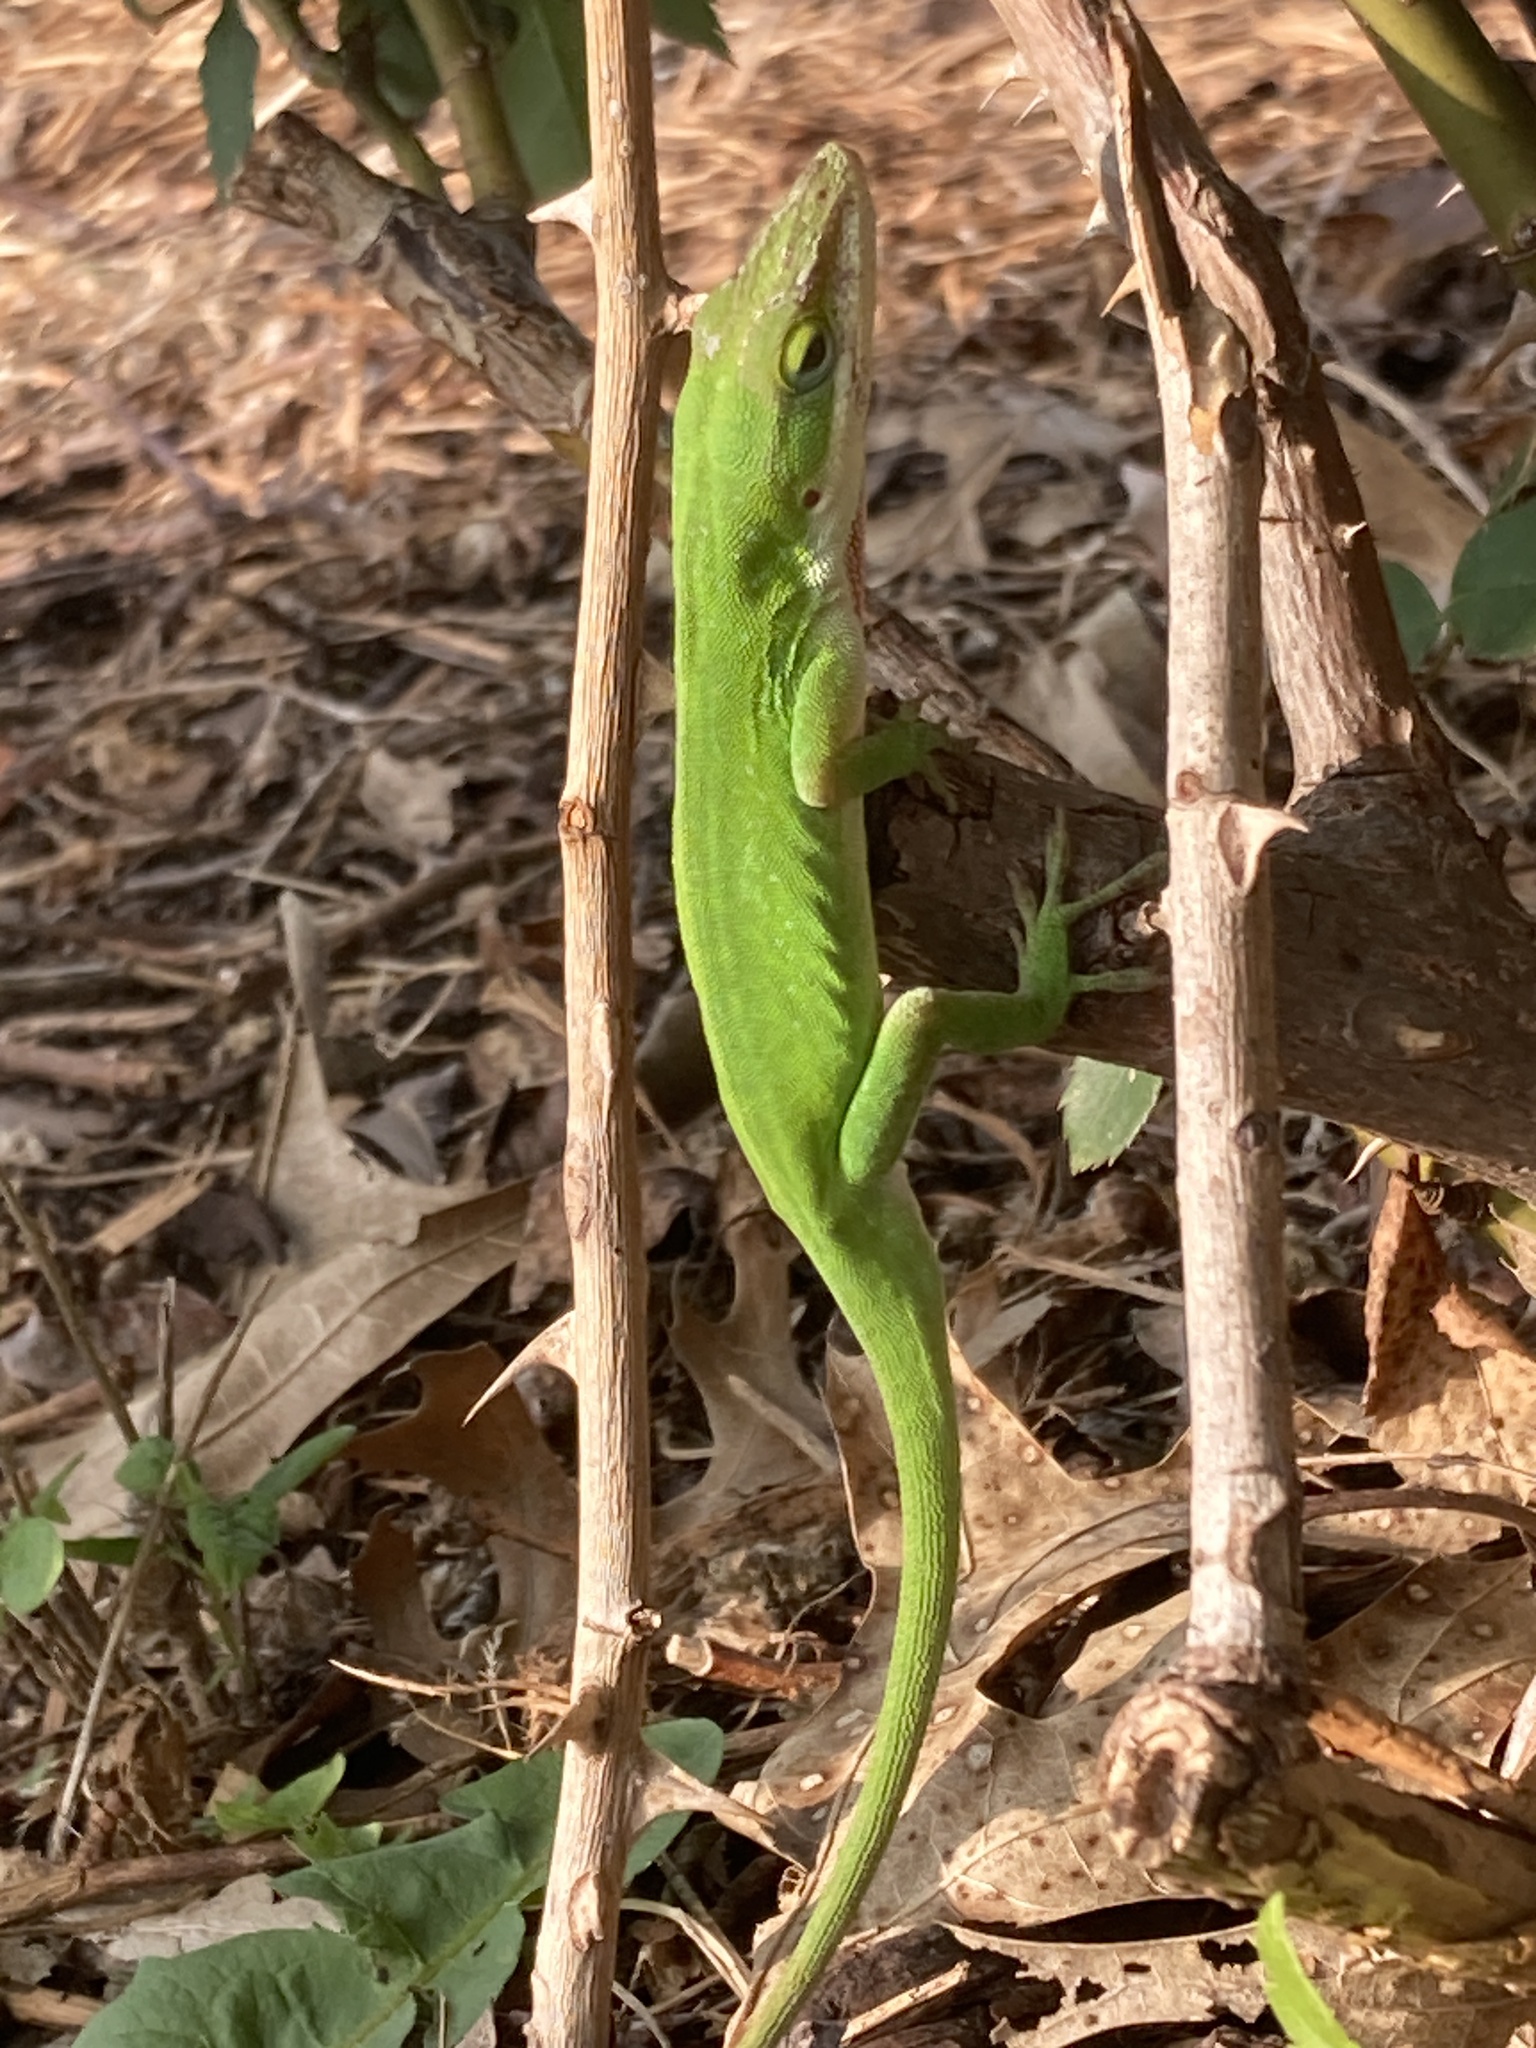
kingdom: Animalia
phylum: Chordata
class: Squamata
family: Dactyloidae
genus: Anolis
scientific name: Anolis carolinensis
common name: Green anole
